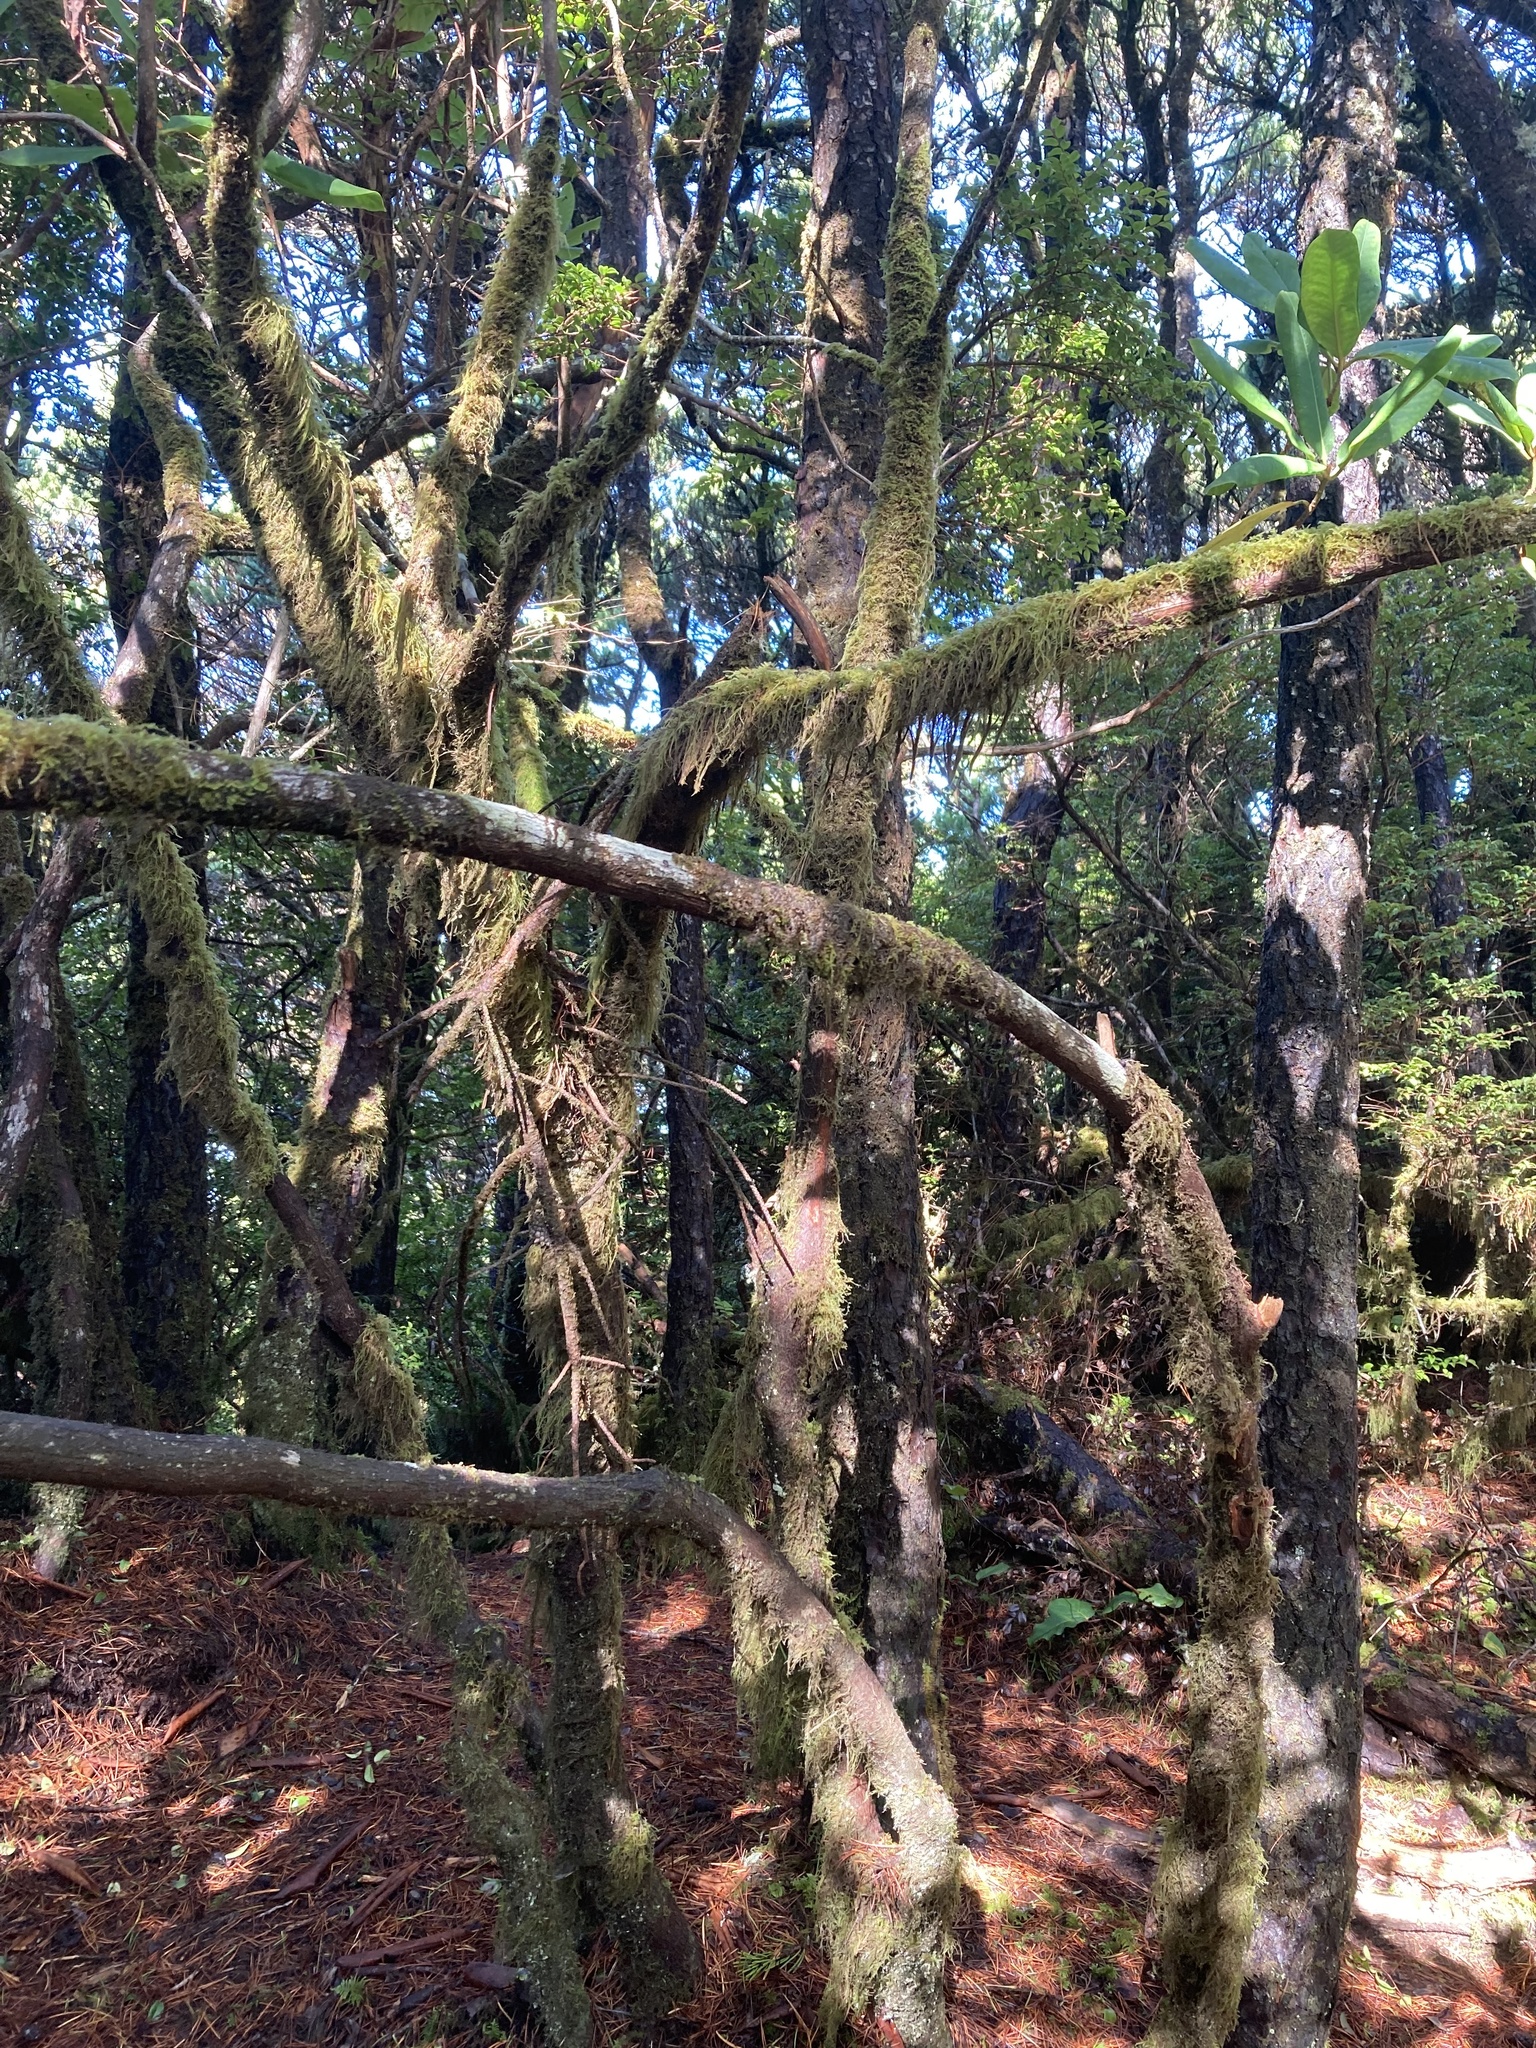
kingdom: Plantae
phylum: Tracheophyta
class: Magnoliopsida
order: Ericales
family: Ericaceae
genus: Rhododendron
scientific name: Rhododendron macrophyllum
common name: California rose bay
